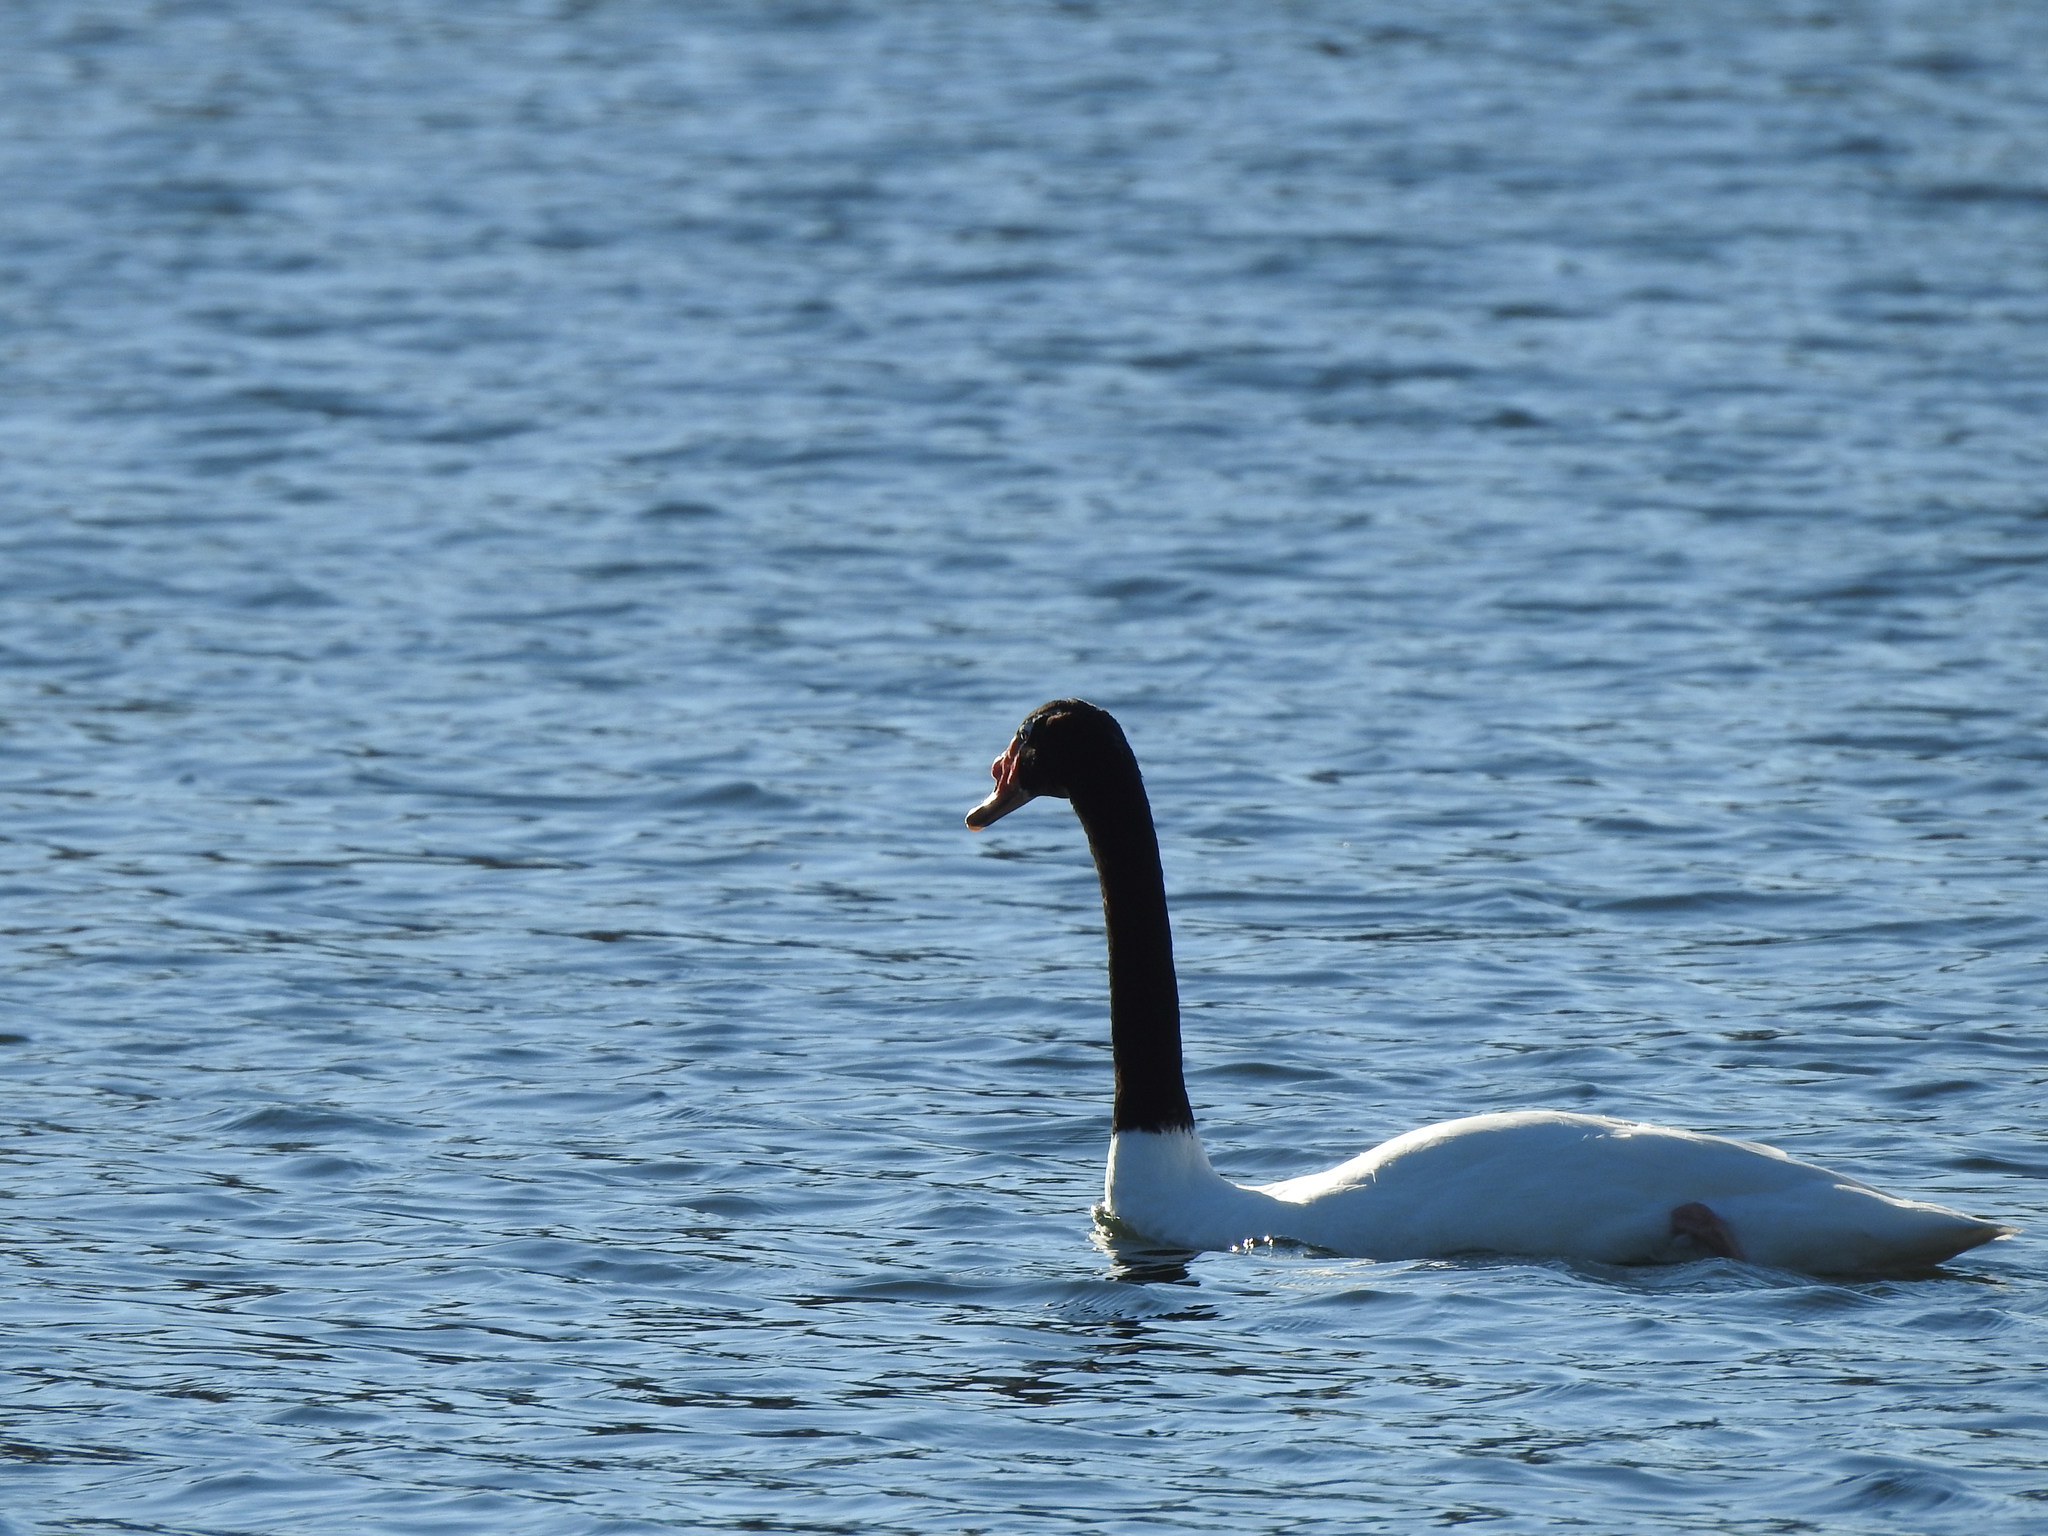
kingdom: Animalia
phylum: Chordata
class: Aves
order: Anseriformes
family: Anatidae
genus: Cygnus
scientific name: Cygnus melancoryphus
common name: Black-necked swan
